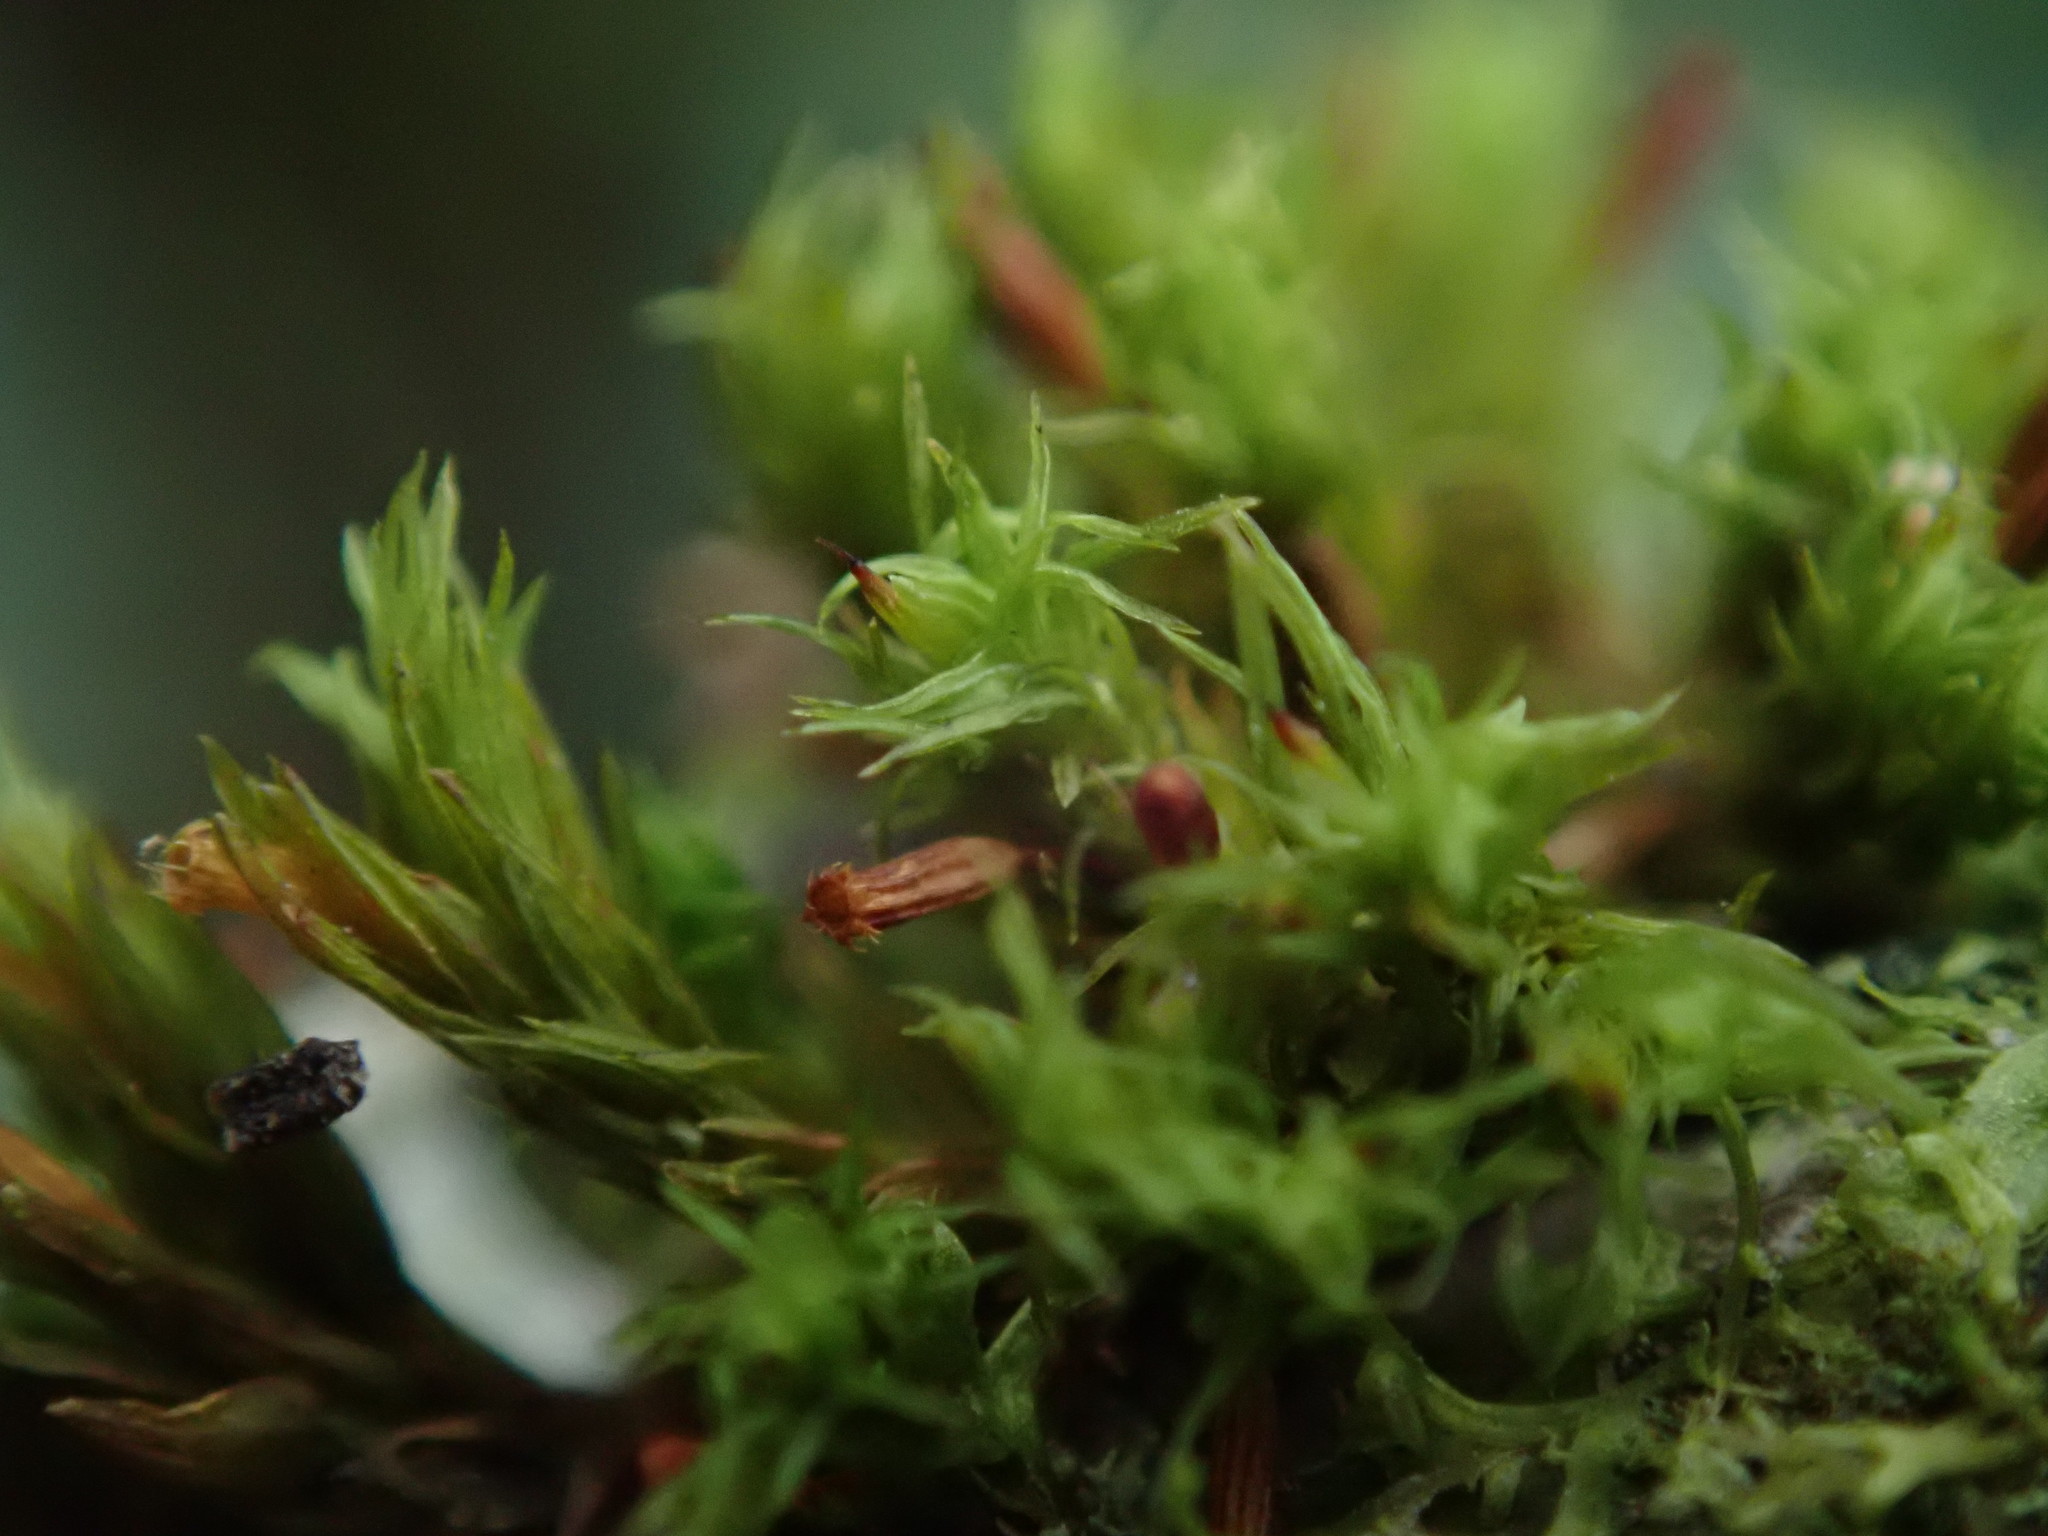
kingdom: Plantae
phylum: Bryophyta
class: Bryopsida
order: Orthotrichales
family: Orthotrichaceae
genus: Orthotrichum
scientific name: Orthotrichum pulchellum
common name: Elegant bristle-moss
